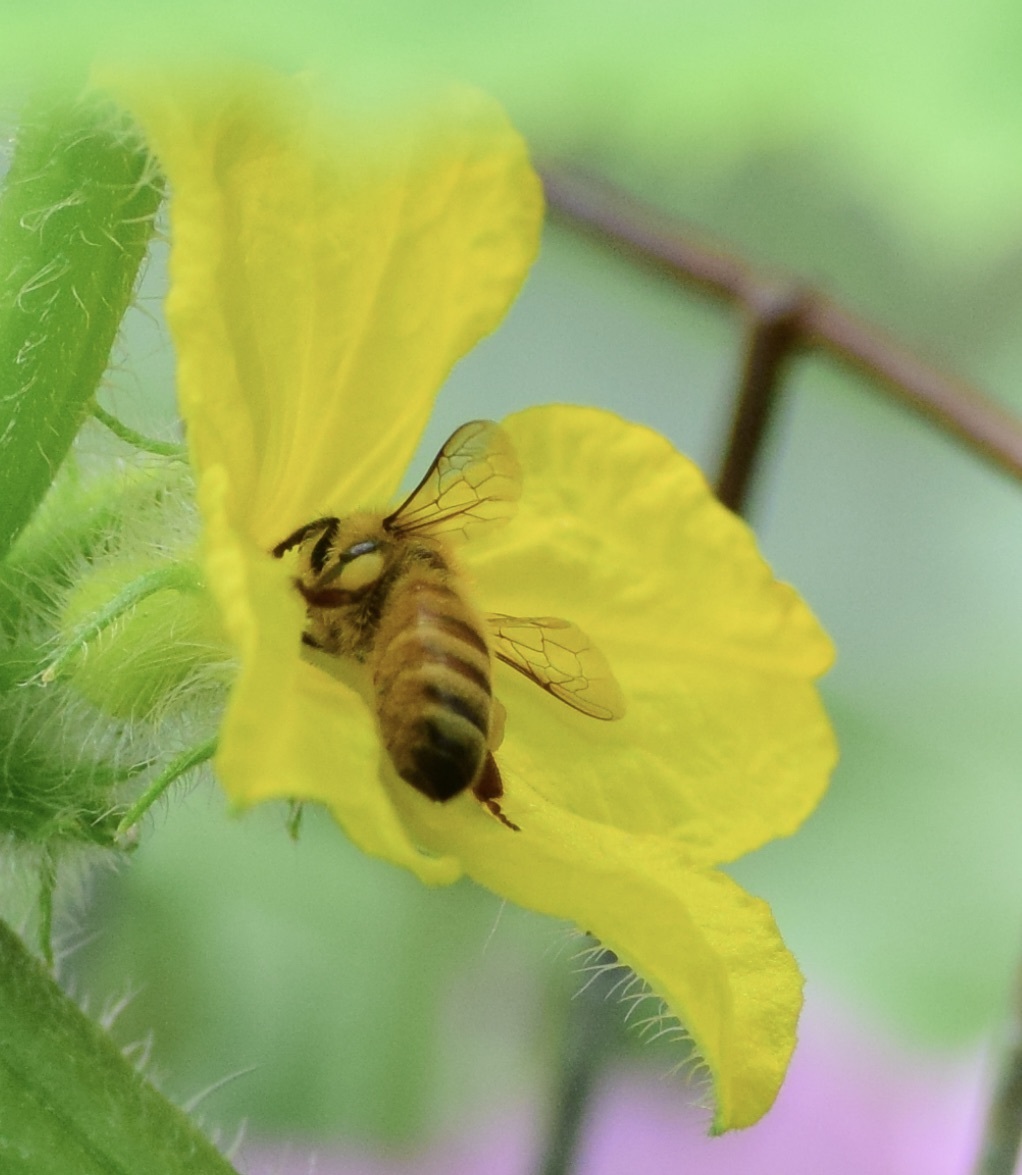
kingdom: Animalia
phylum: Arthropoda
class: Insecta
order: Hymenoptera
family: Apidae
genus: Apis
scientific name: Apis mellifera
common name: Honey bee
